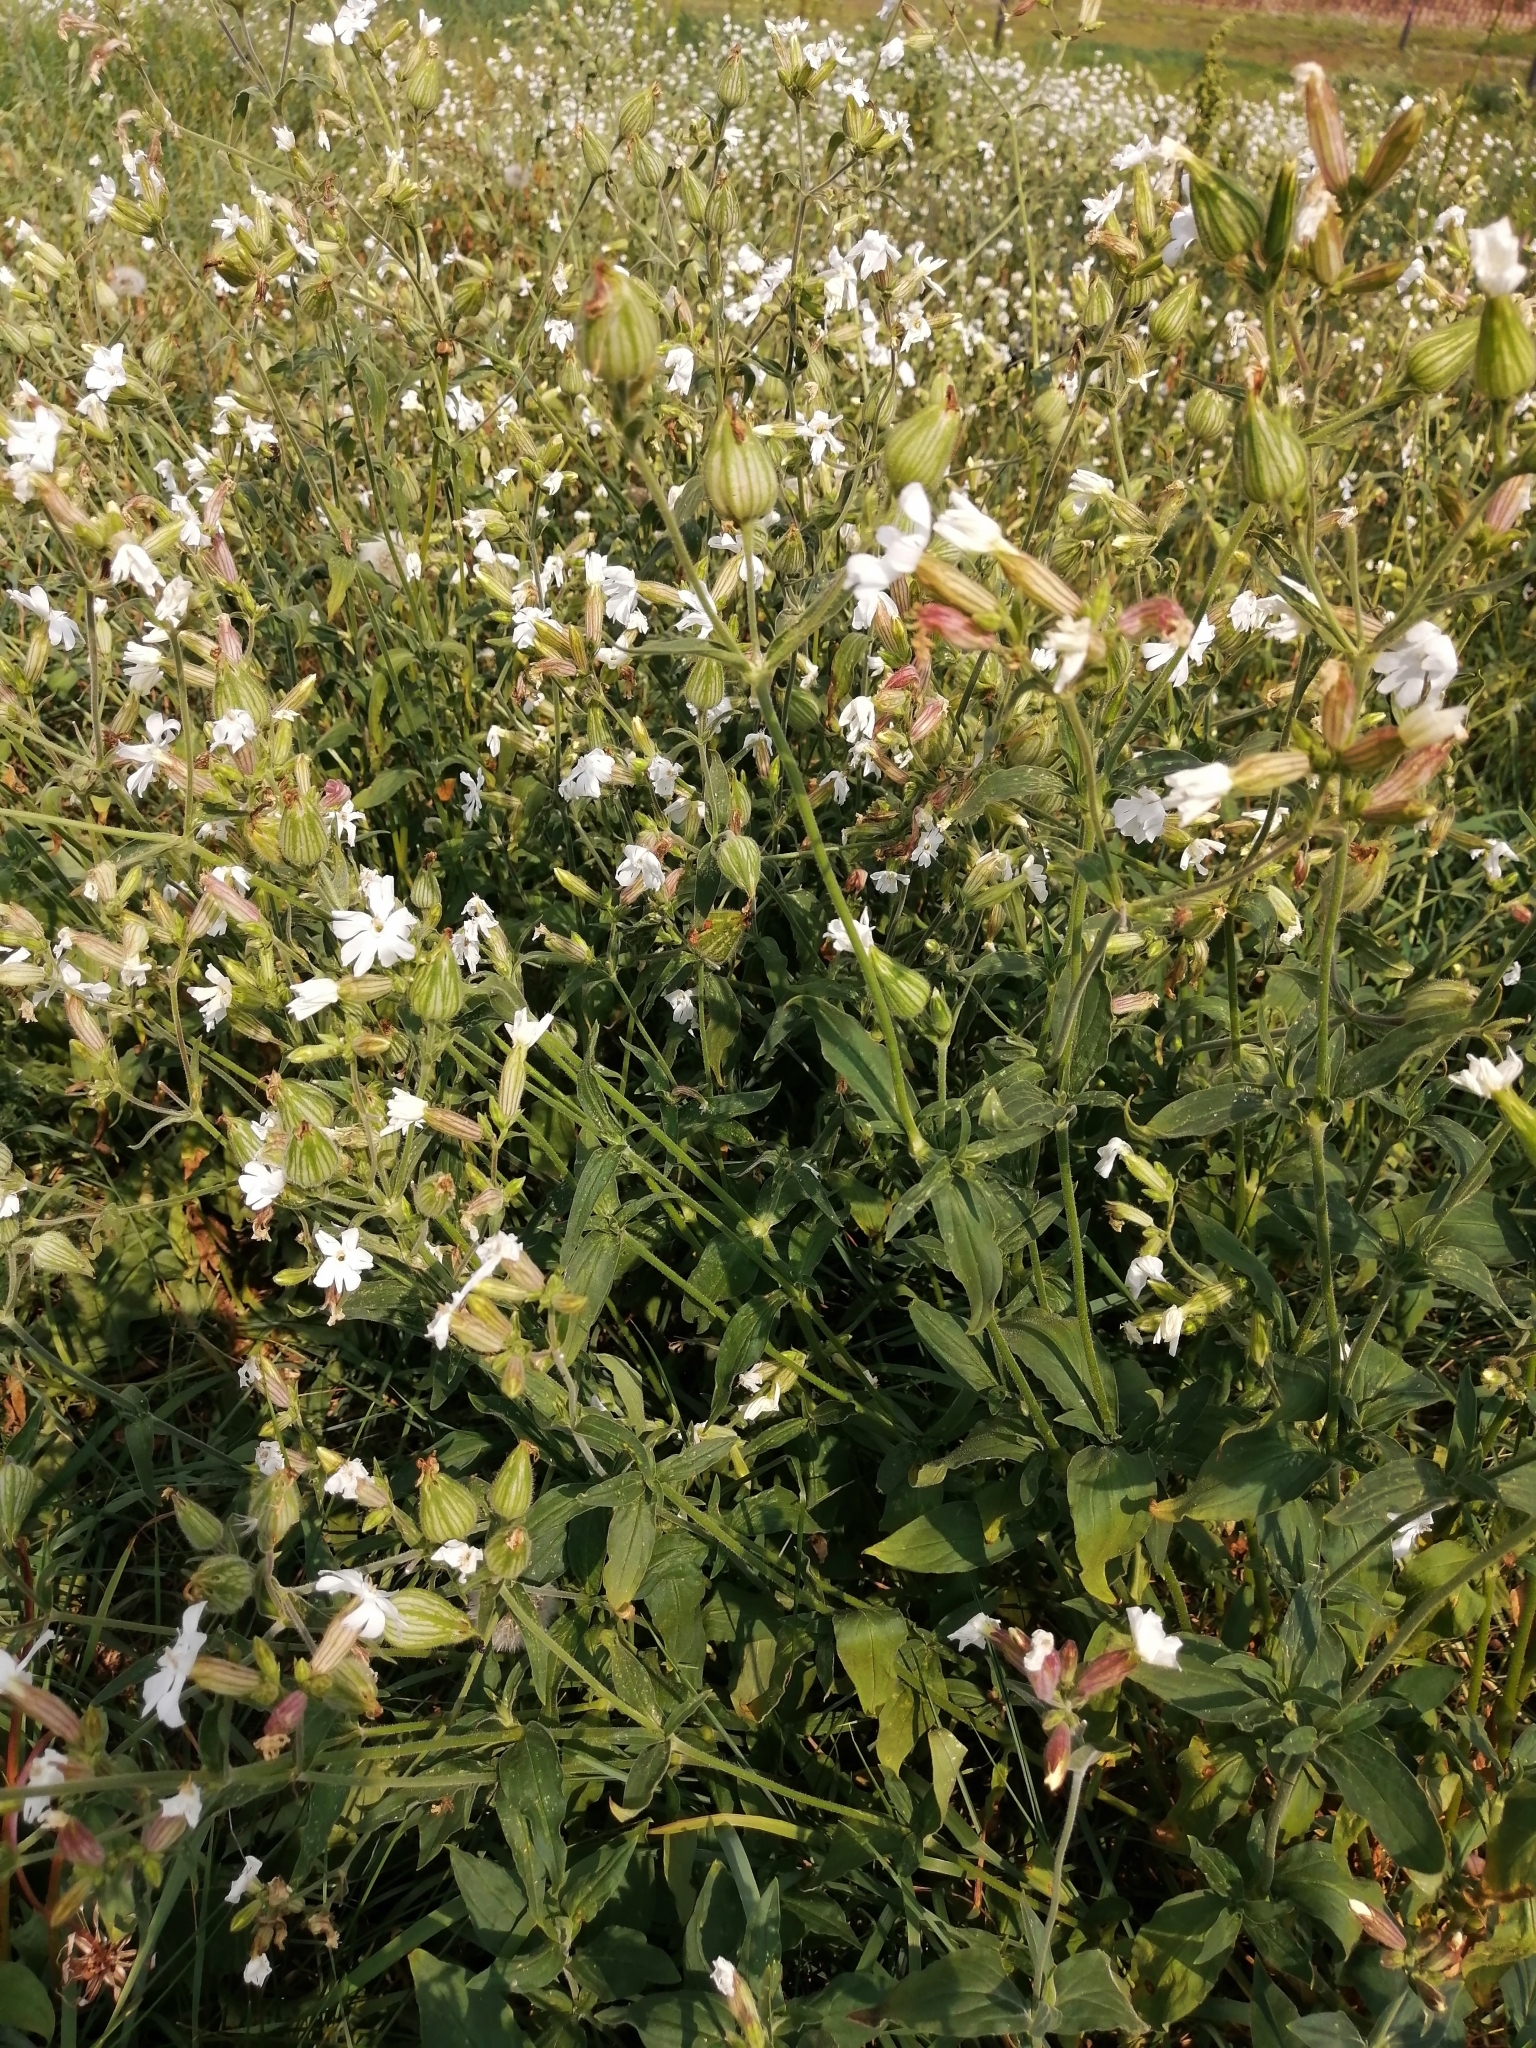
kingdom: Plantae
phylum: Tracheophyta
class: Magnoliopsida
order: Caryophyllales
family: Caryophyllaceae
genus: Silene
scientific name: Silene latifolia
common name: White campion
